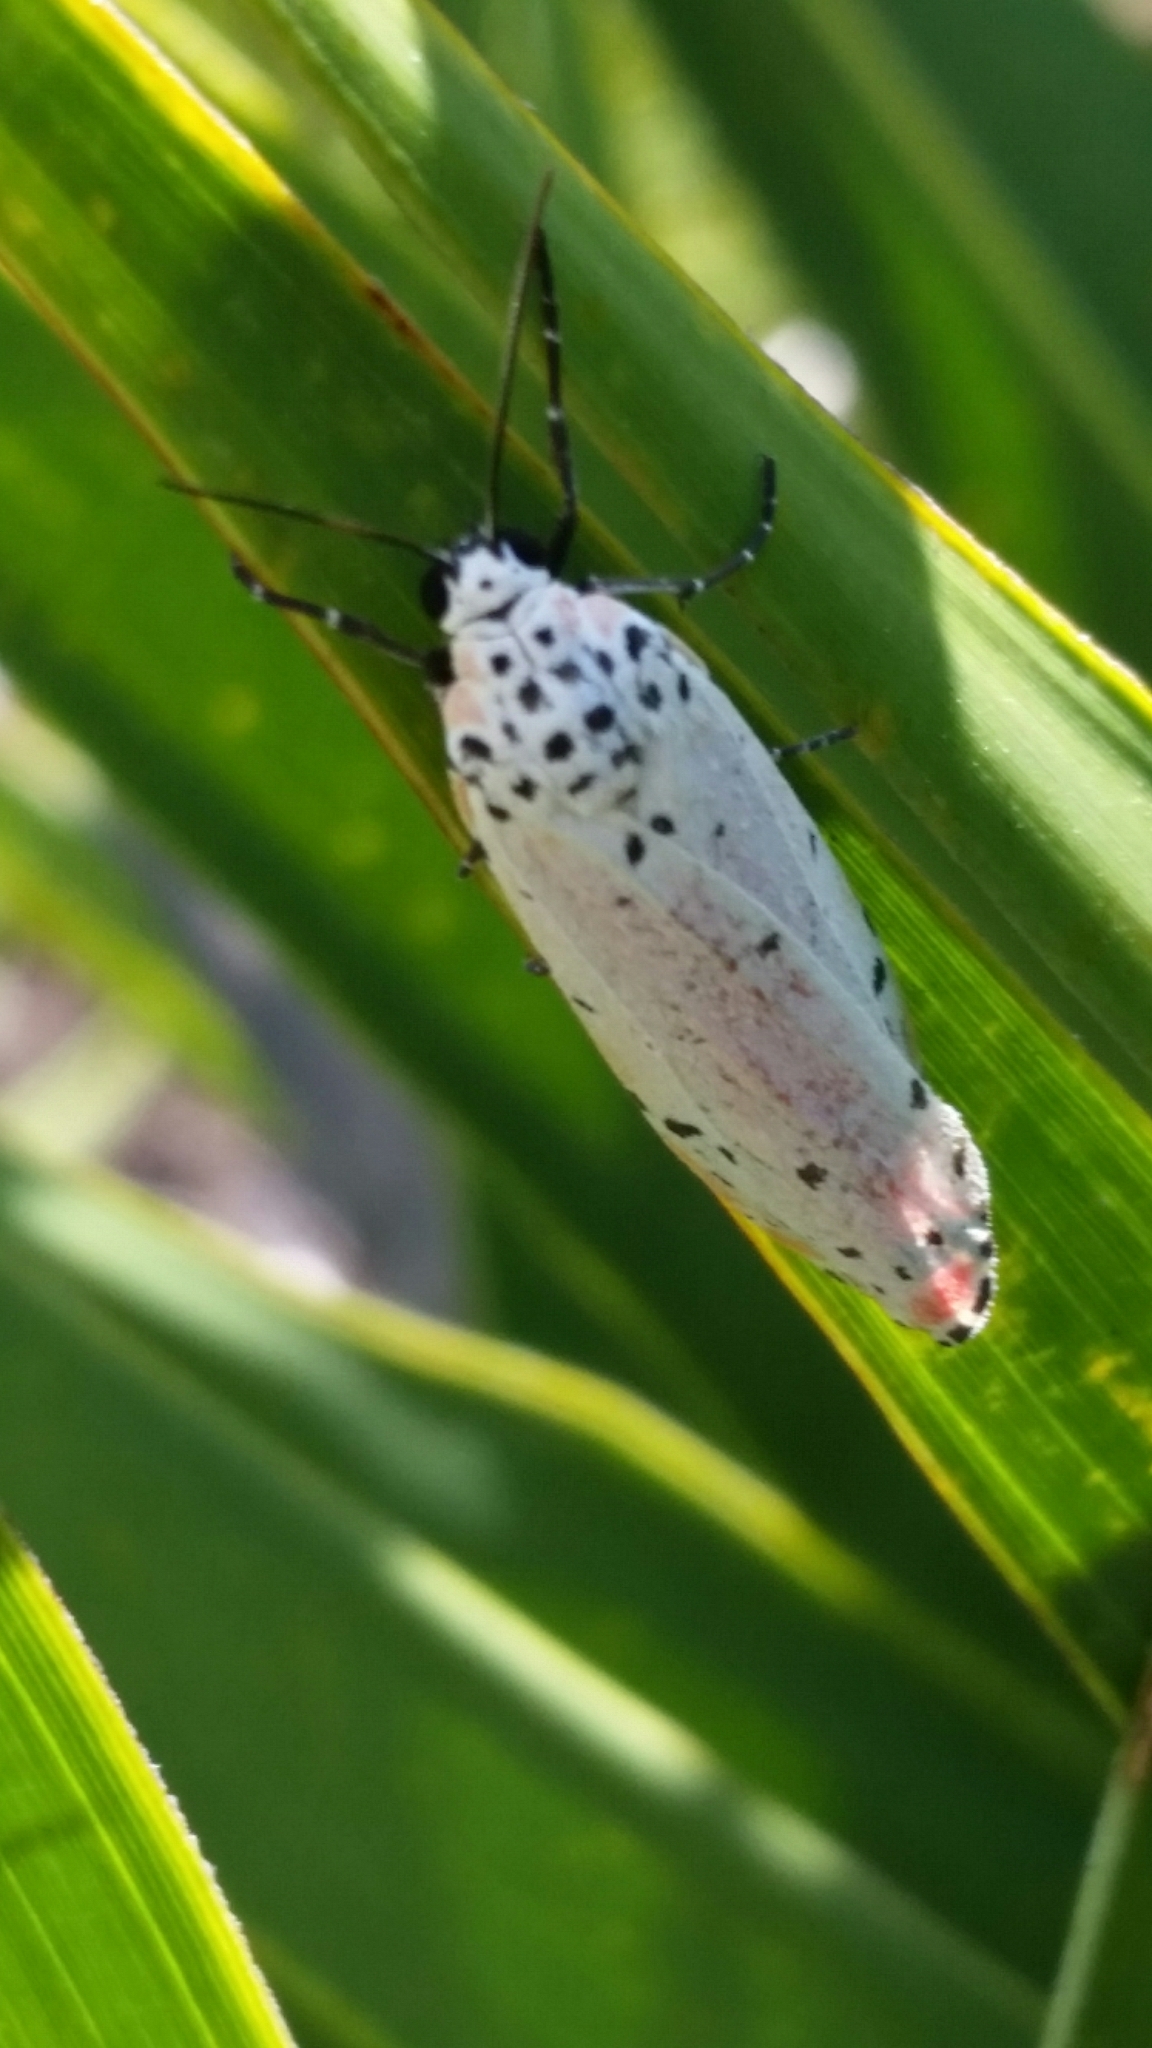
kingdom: Animalia
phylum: Arthropoda
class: Insecta
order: Lepidoptera
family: Erebidae
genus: Utetheisa
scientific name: Utetheisa ornatrix
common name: Beautiful utetheisa
